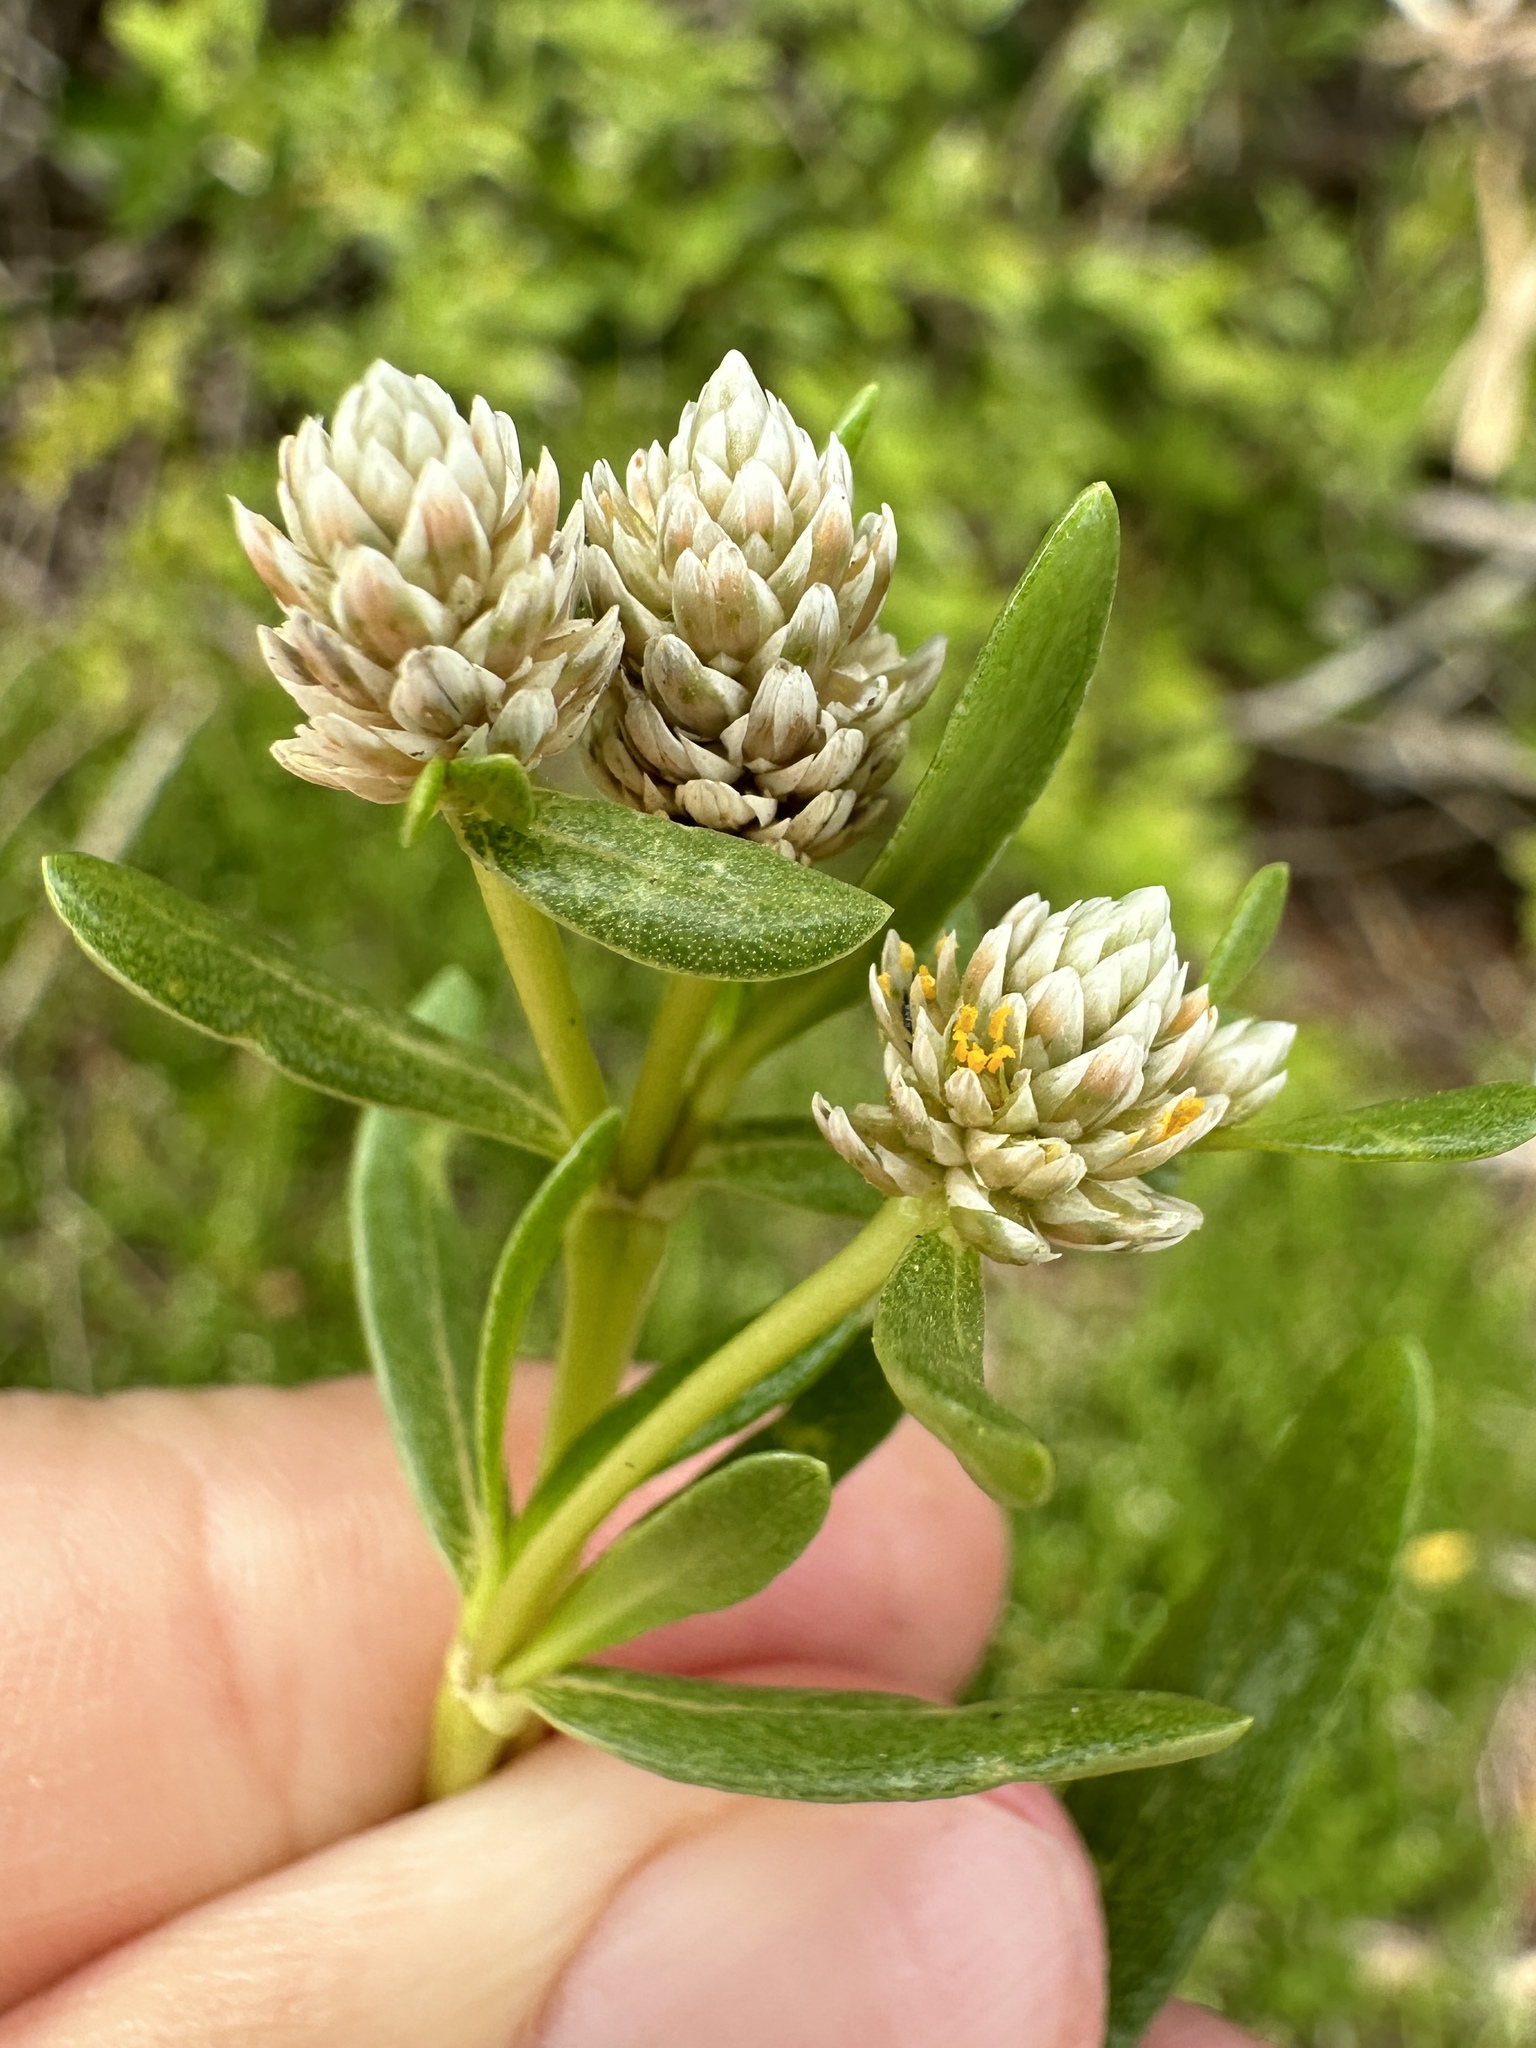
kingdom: Plantae
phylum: Tracheophyta
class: Magnoliopsida
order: Caryophyllales
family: Amaranthaceae
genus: Gomphrena
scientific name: Gomphrena vermicularis
